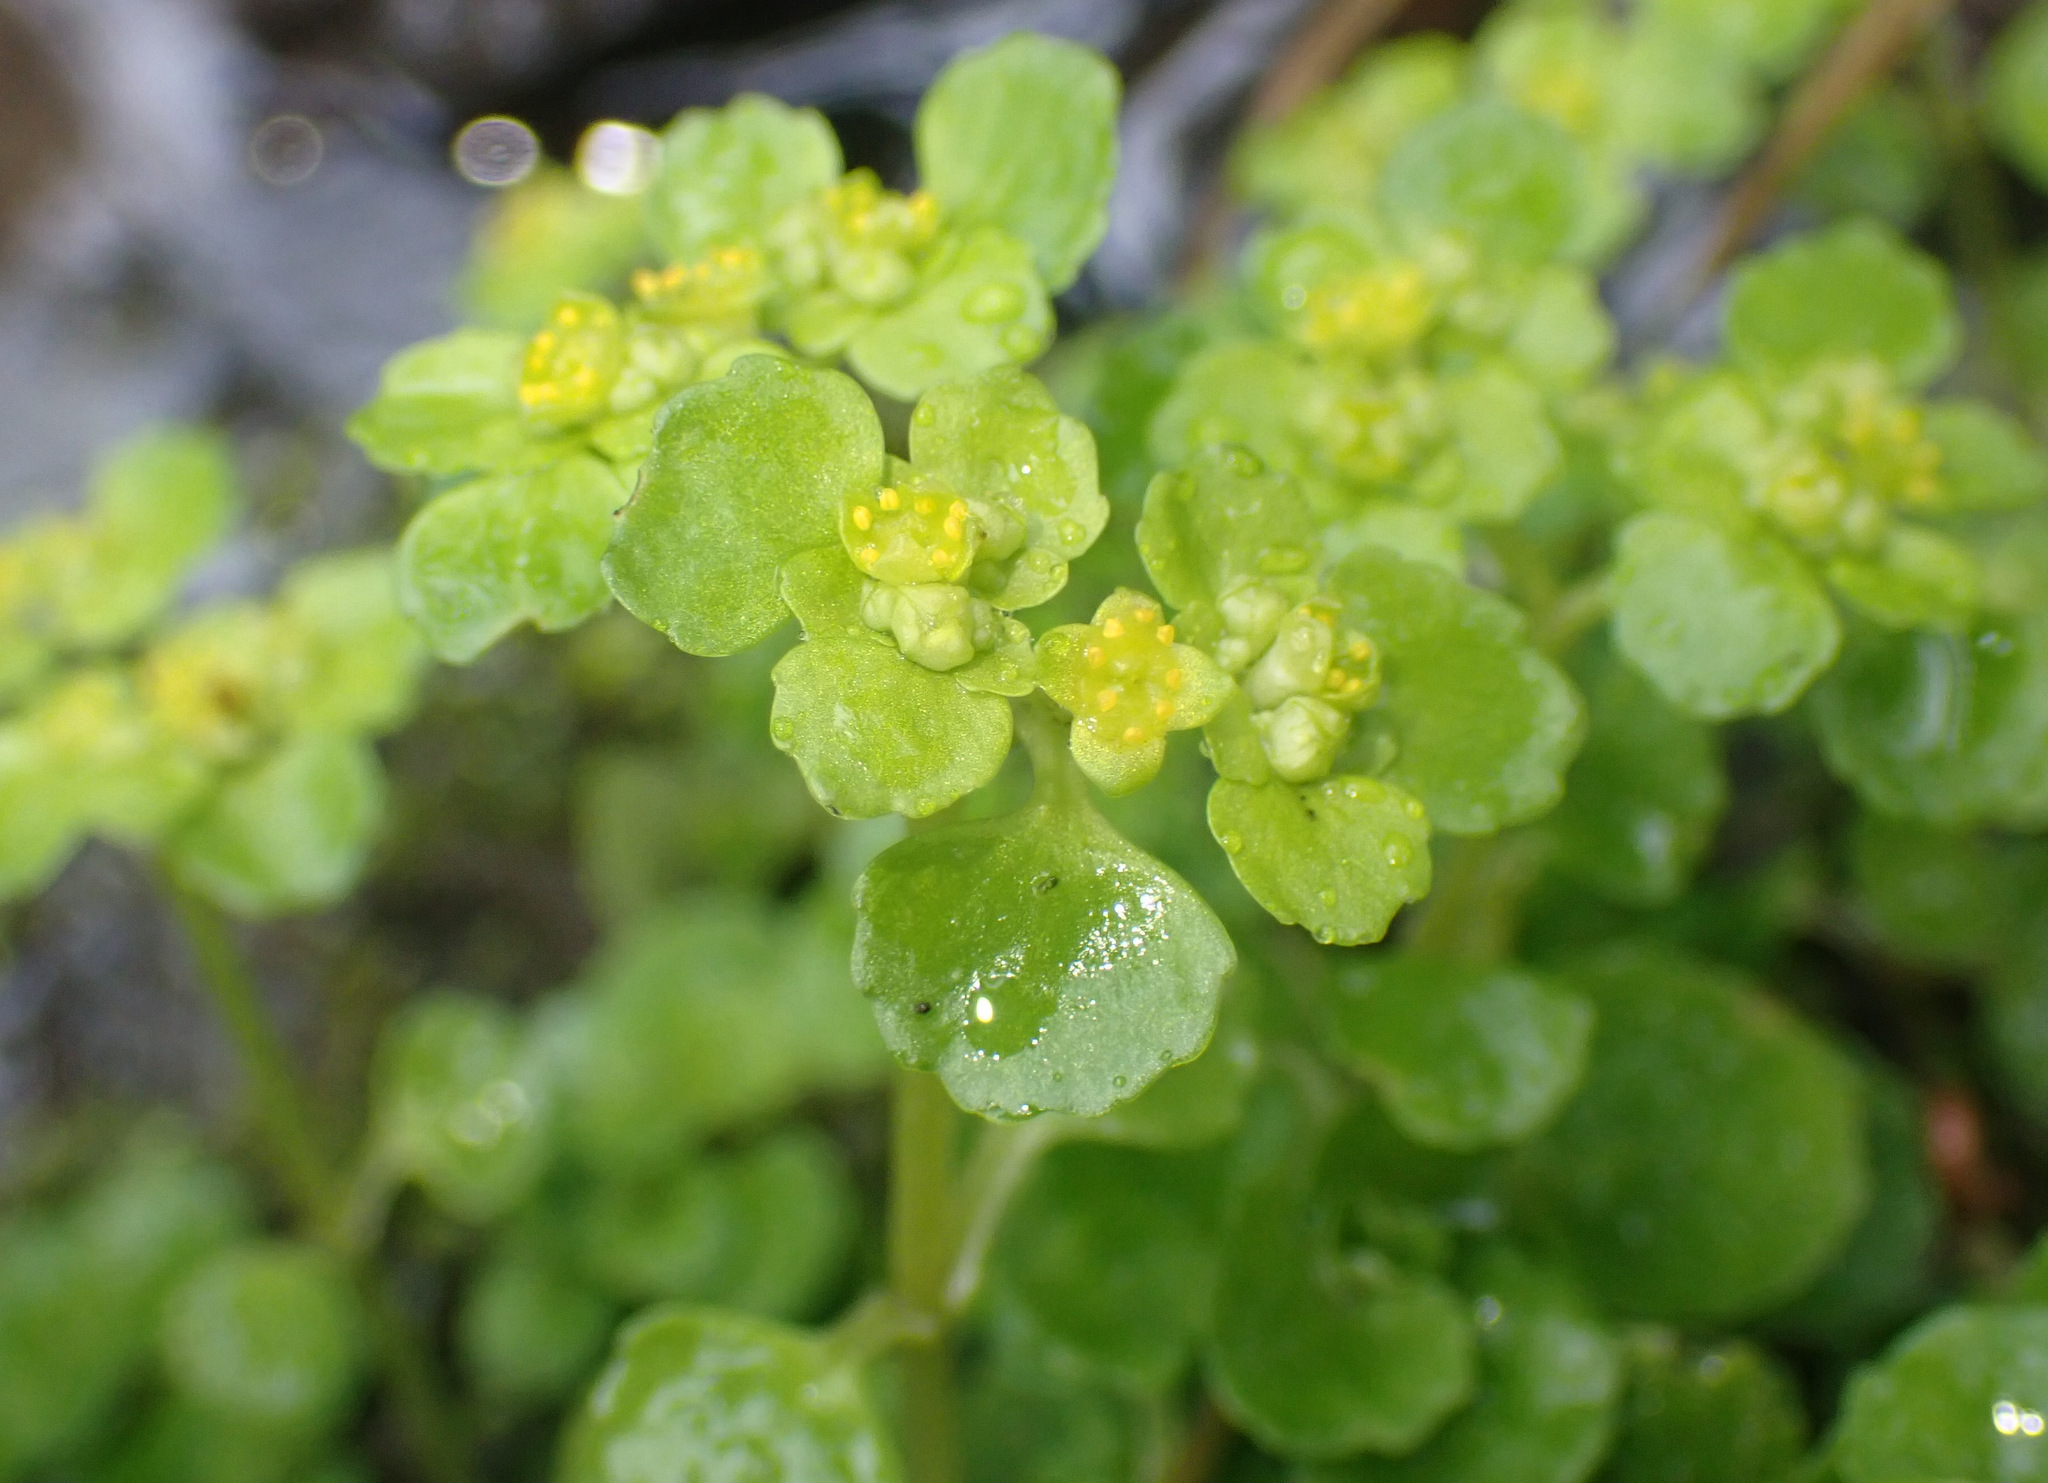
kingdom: Plantae
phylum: Tracheophyta
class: Magnoliopsida
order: Saxifragales
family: Saxifragaceae
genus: Chrysosplenium
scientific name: Chrysosplenium oppositifolium
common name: Opposite-leaved golden-saxifrage
